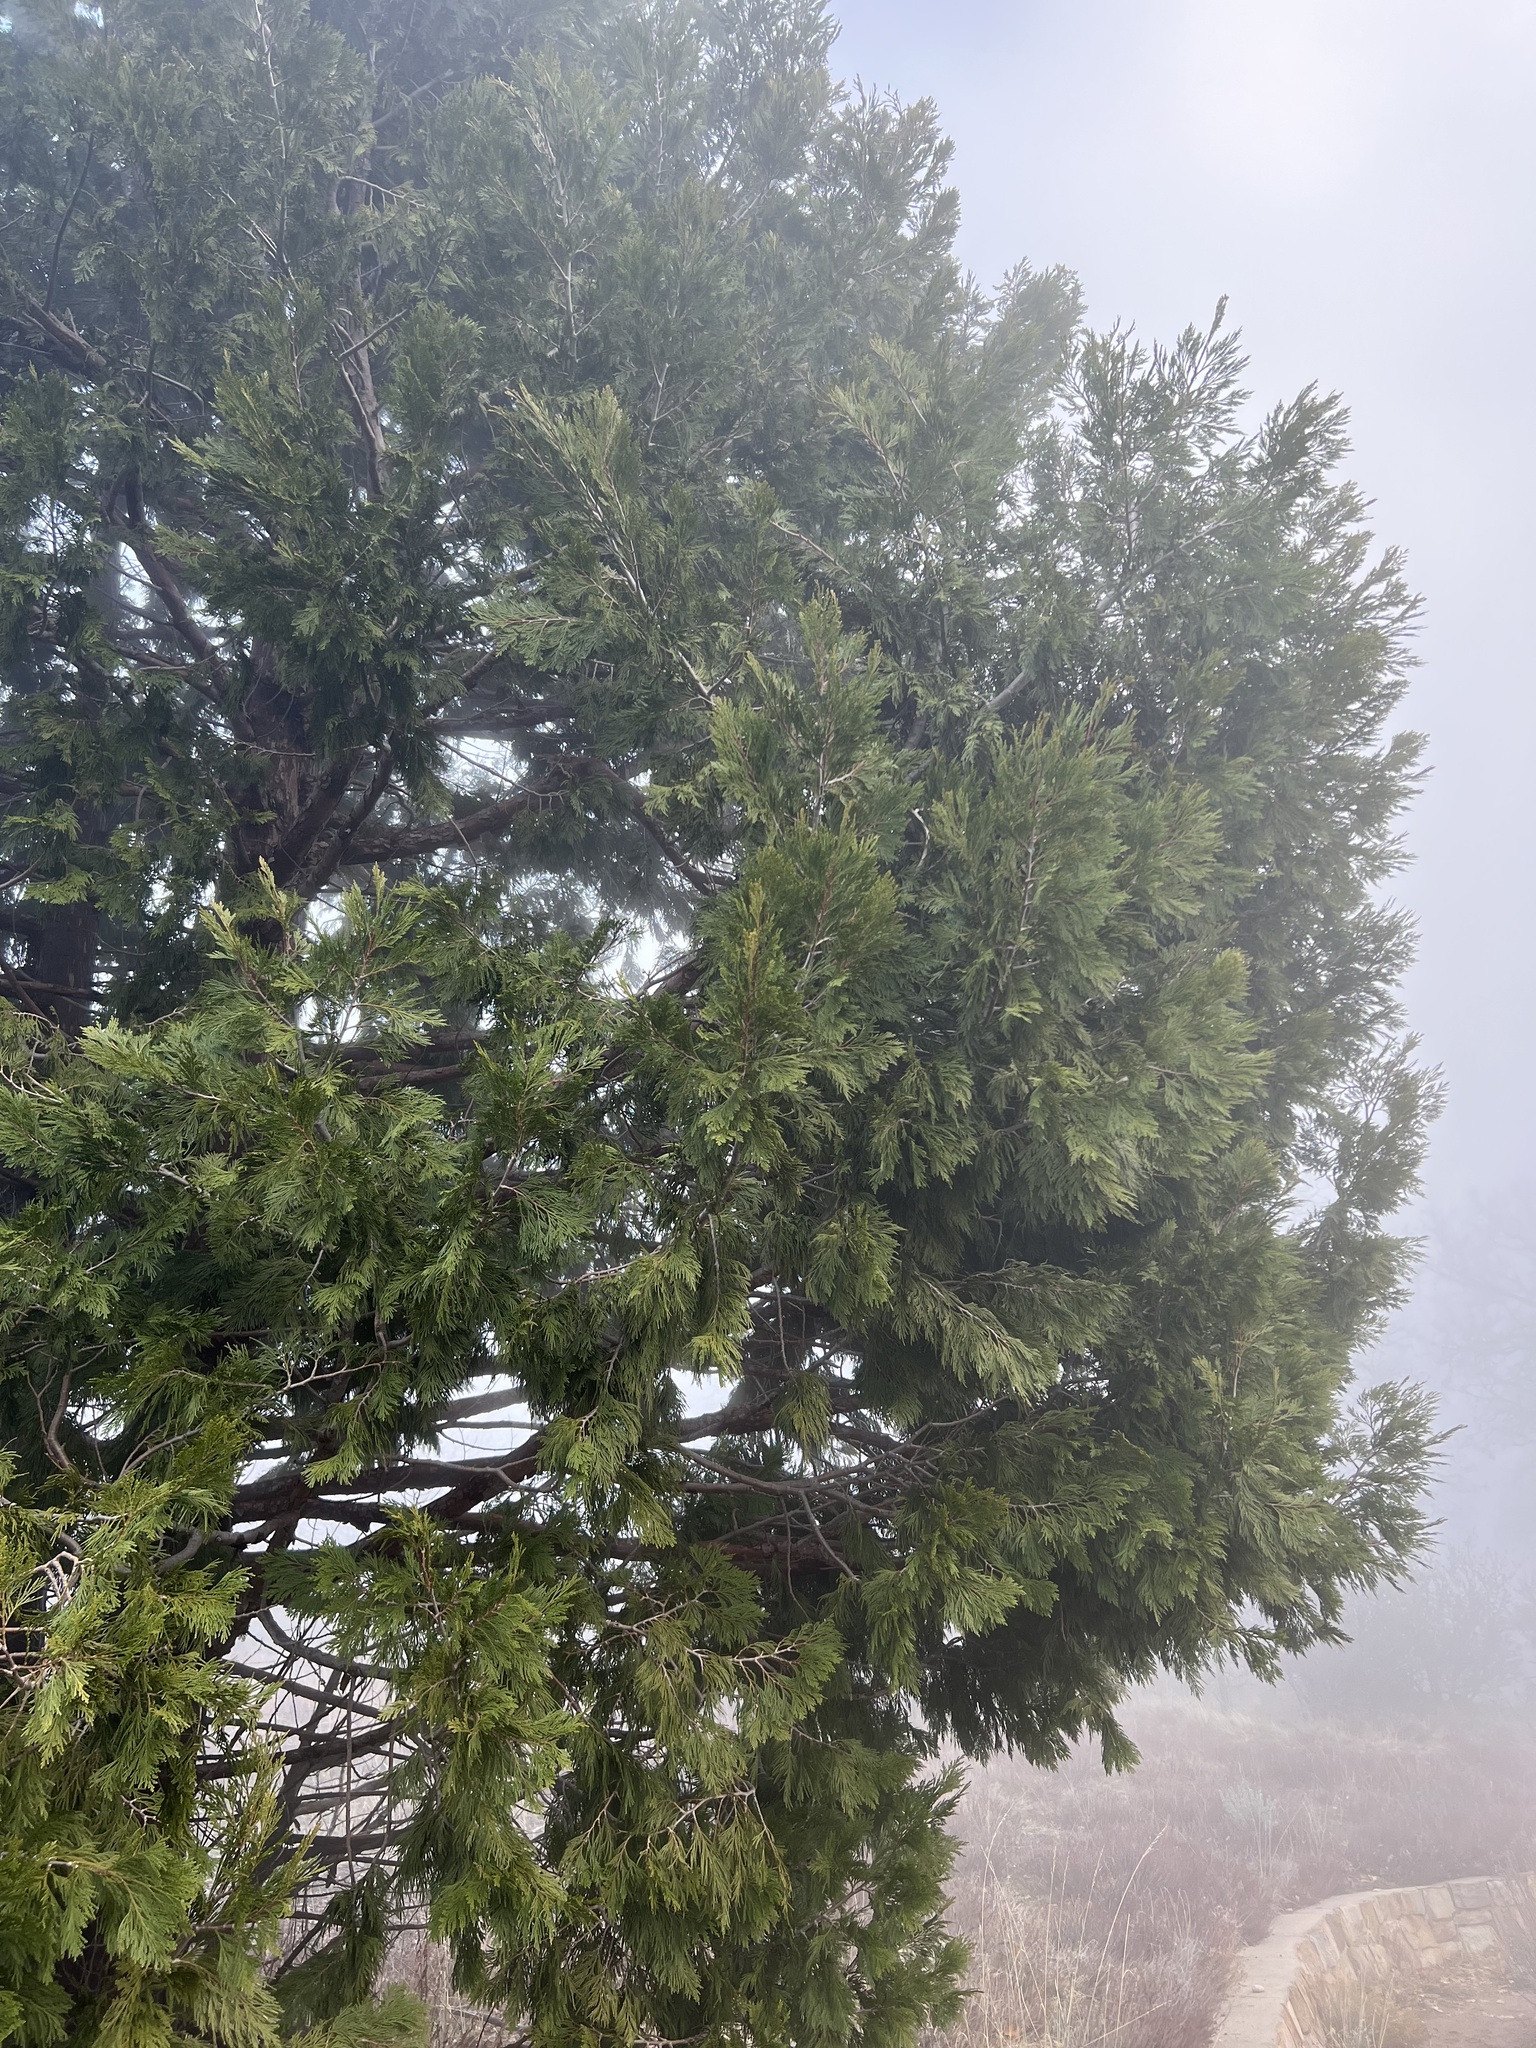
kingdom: Plantae
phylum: Tracheophyta
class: Pinopsida
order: Pinales
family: Cupressaceae
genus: Calocedrus
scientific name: Calocedrus decurrens
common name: Californian incense-cedar
